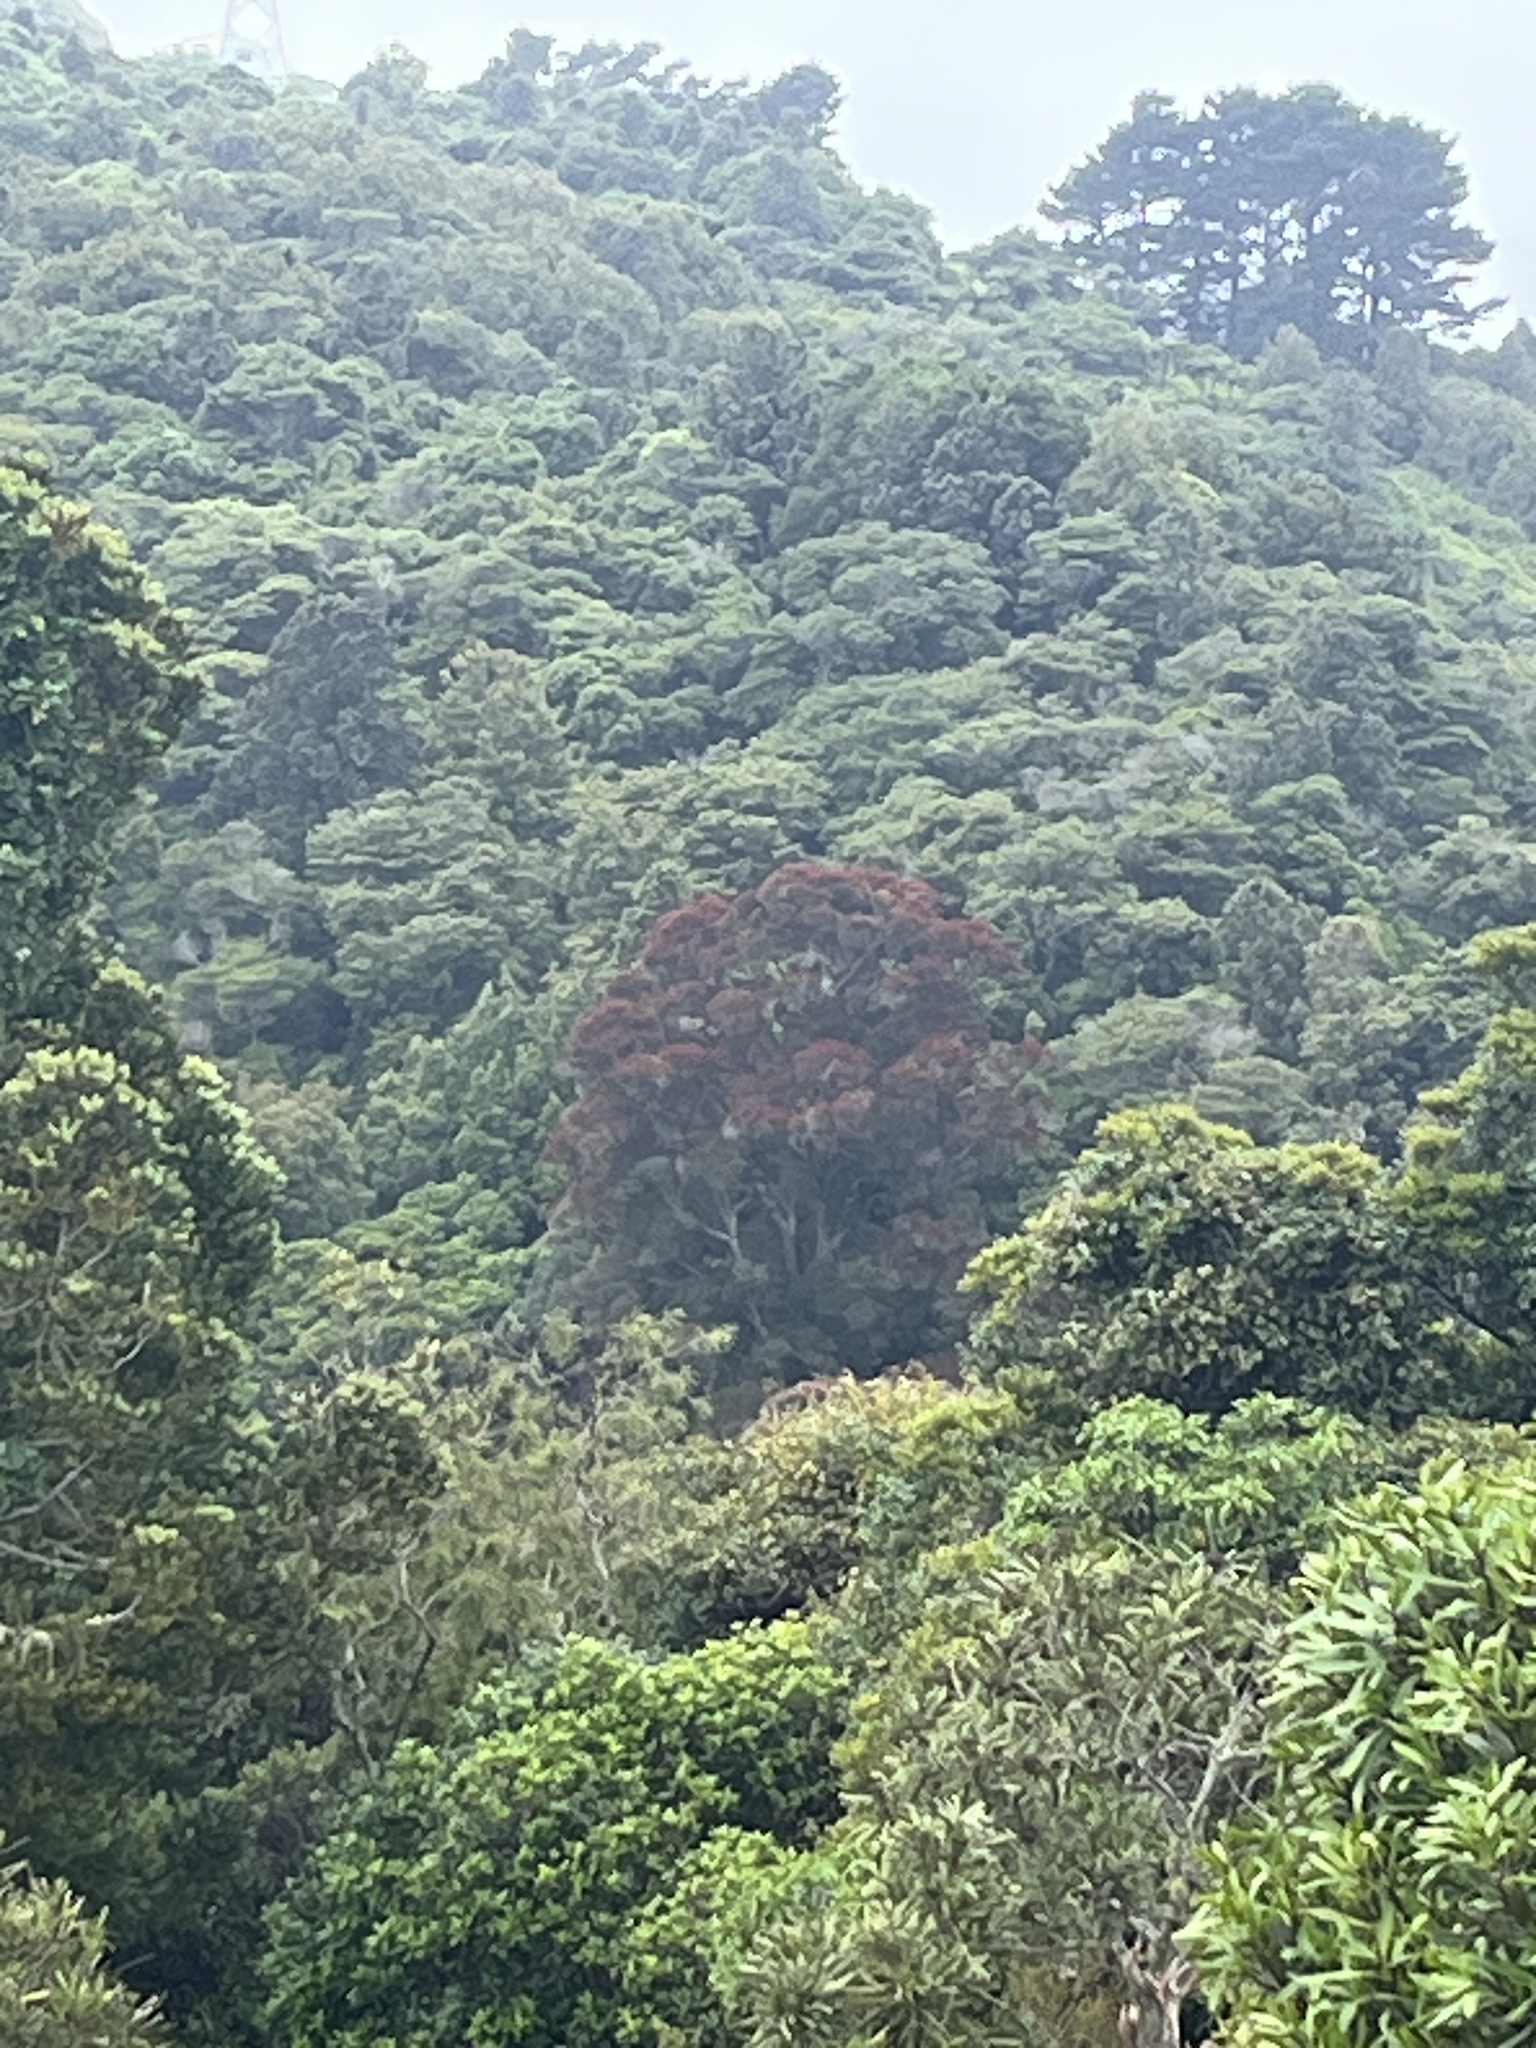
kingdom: Plantae
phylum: Tracheophyta
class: Magnoliopsida
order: Myrtales
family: Myrtaceae
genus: Metrosideros
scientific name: Metrosideros robusta
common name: Northern rata
